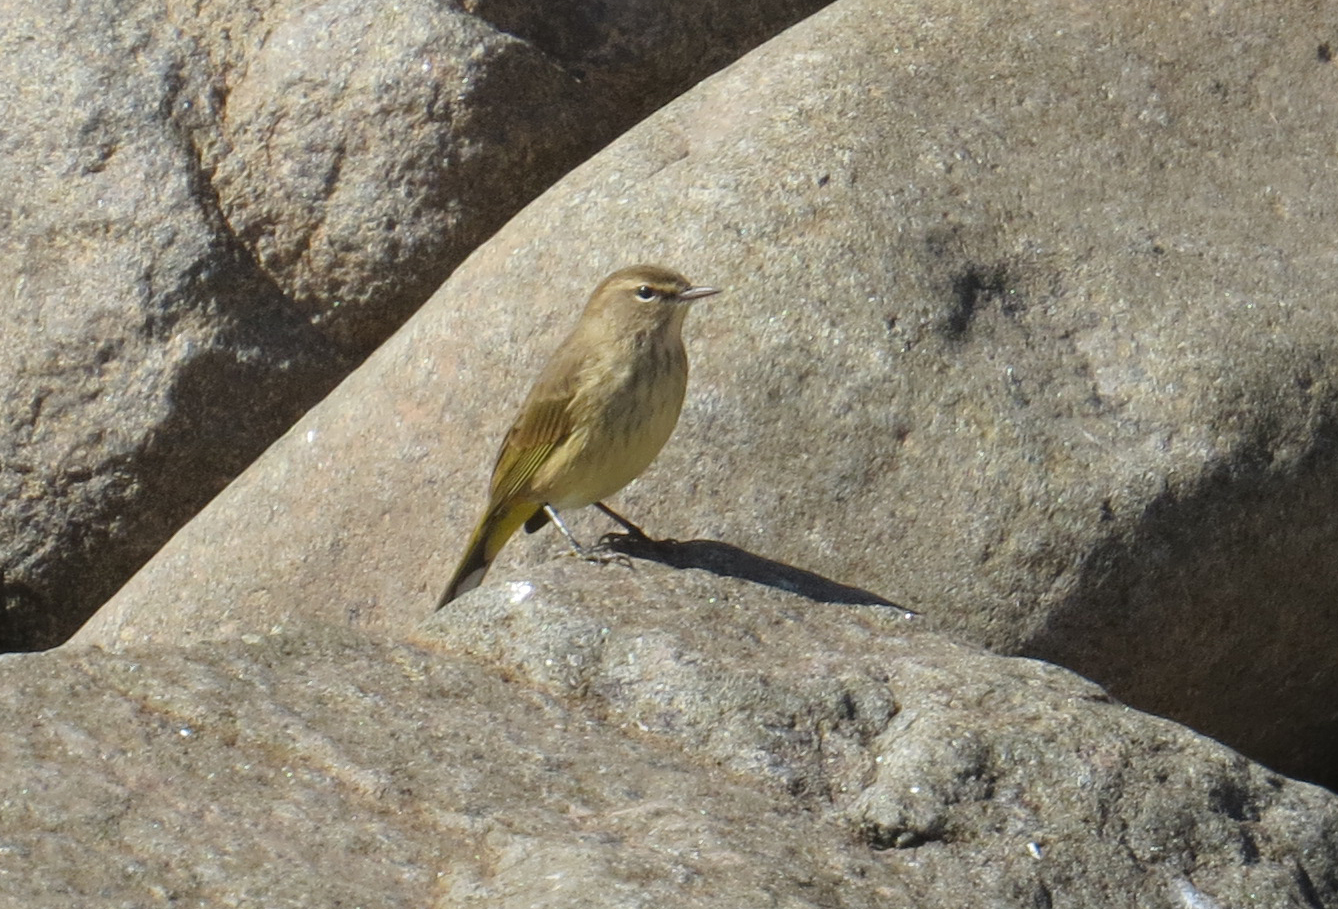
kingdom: Animalia
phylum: Chordata
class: Aves
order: Passeriformes
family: Parulidae
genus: Setophaga
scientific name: Setophaga palmarum
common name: Palm warbler
